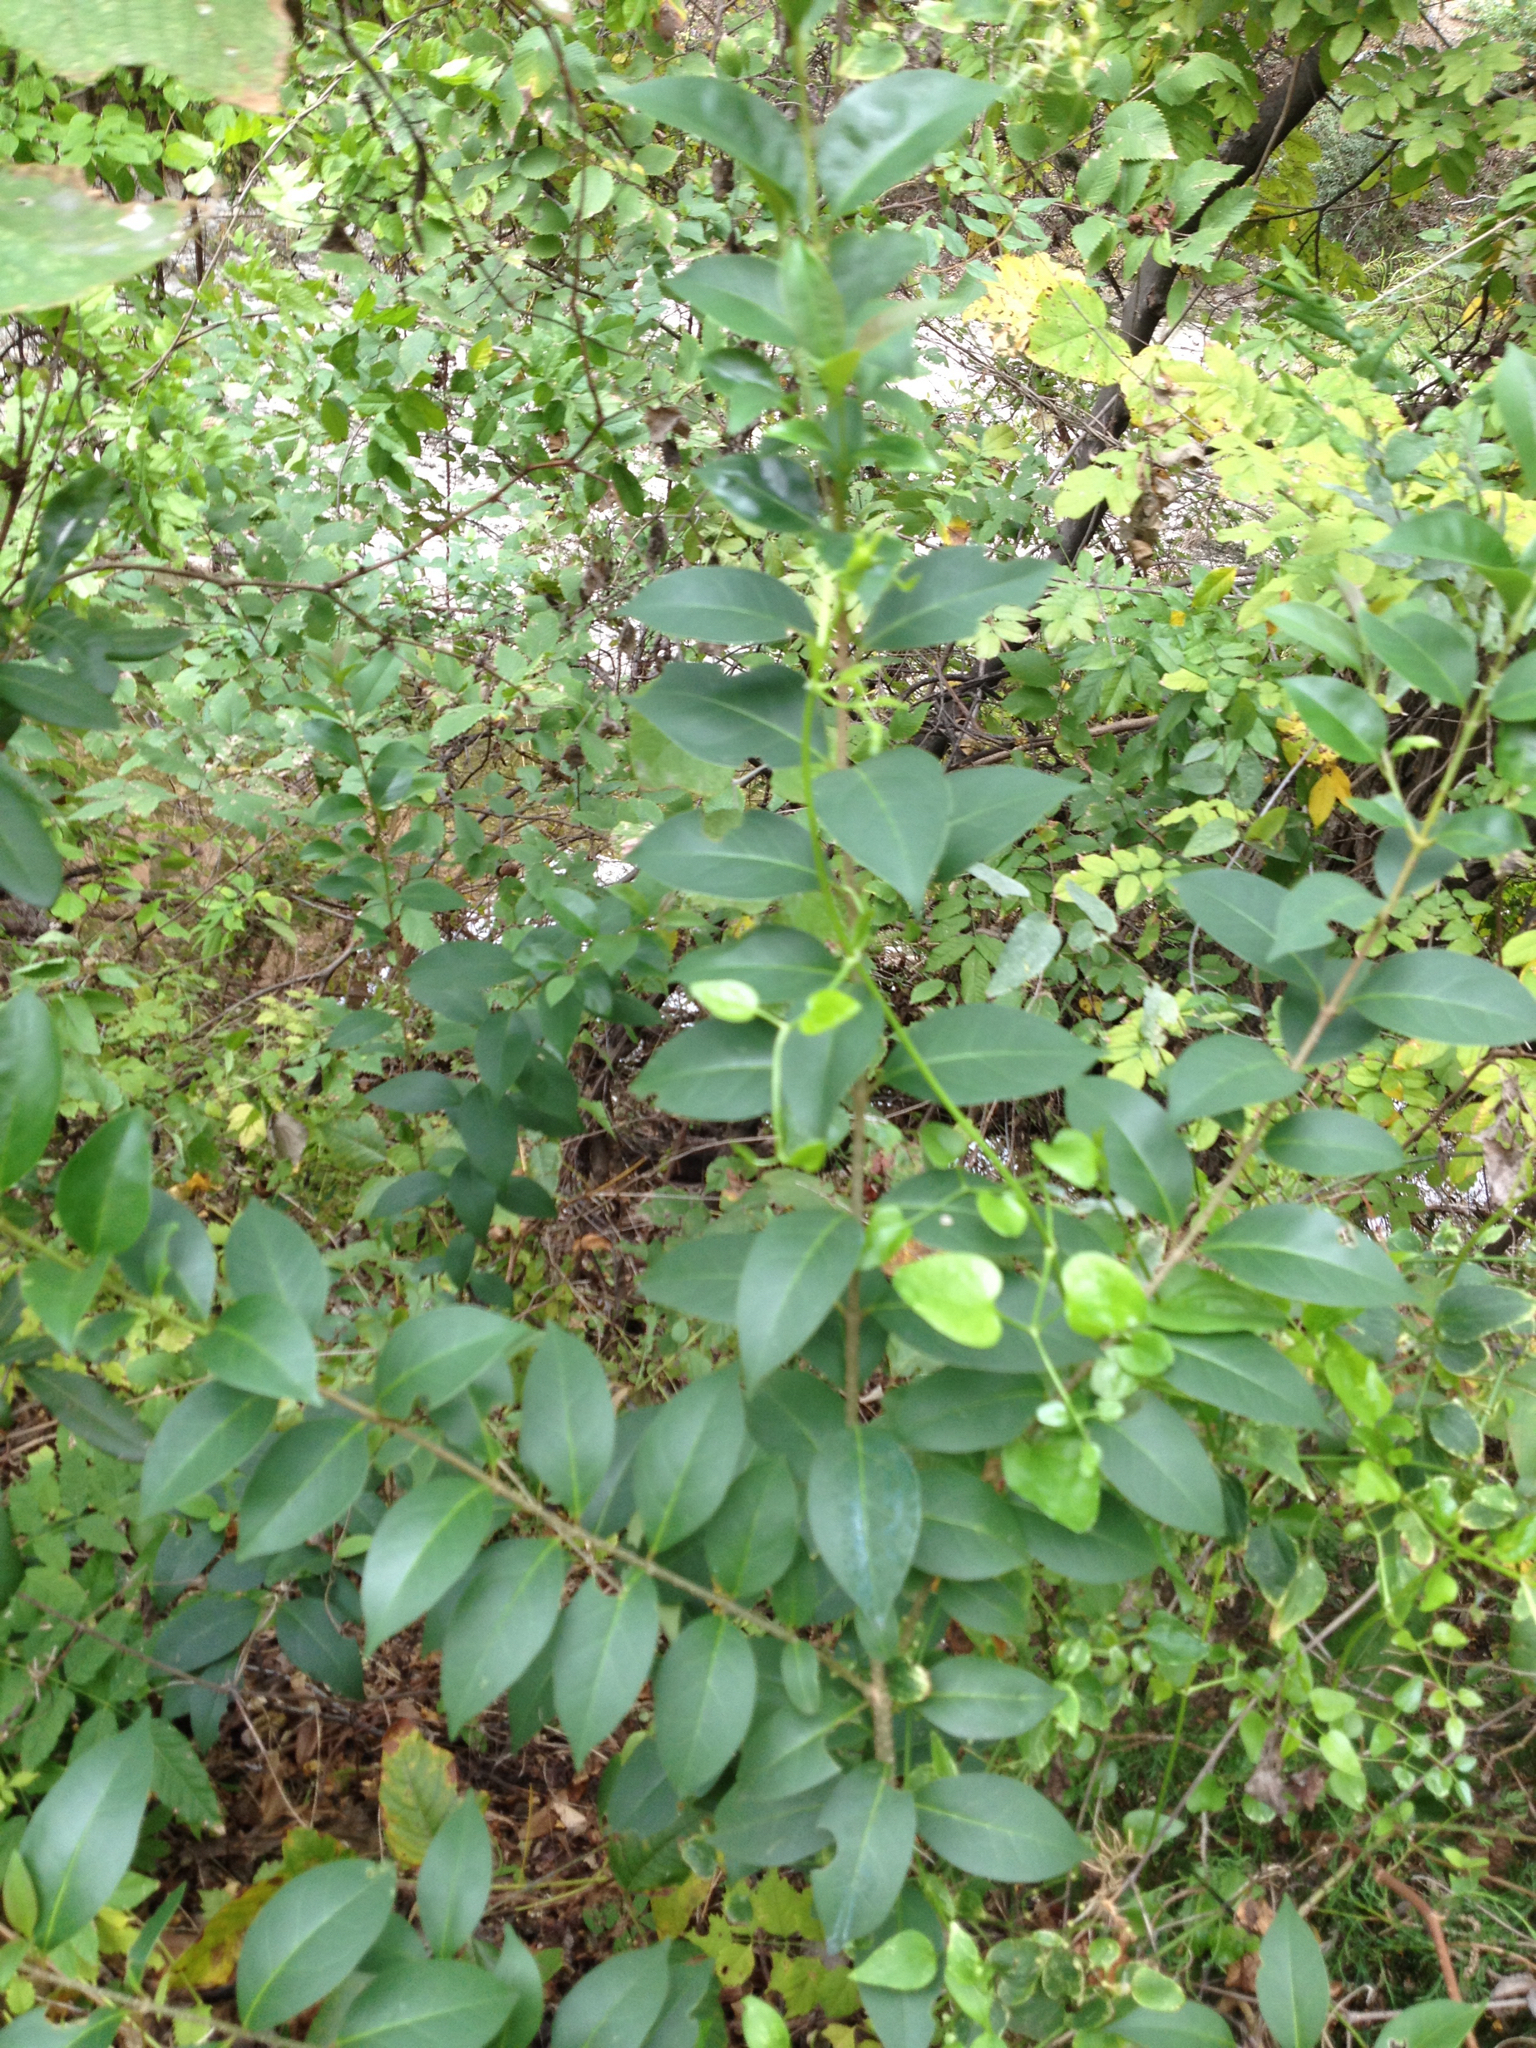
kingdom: Plantae
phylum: Tracheophyta
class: Magnoliopsida
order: Lamiales
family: Oleaceae
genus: Ligustrum
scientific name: Ligustrum lucidum
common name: Glossy privet
